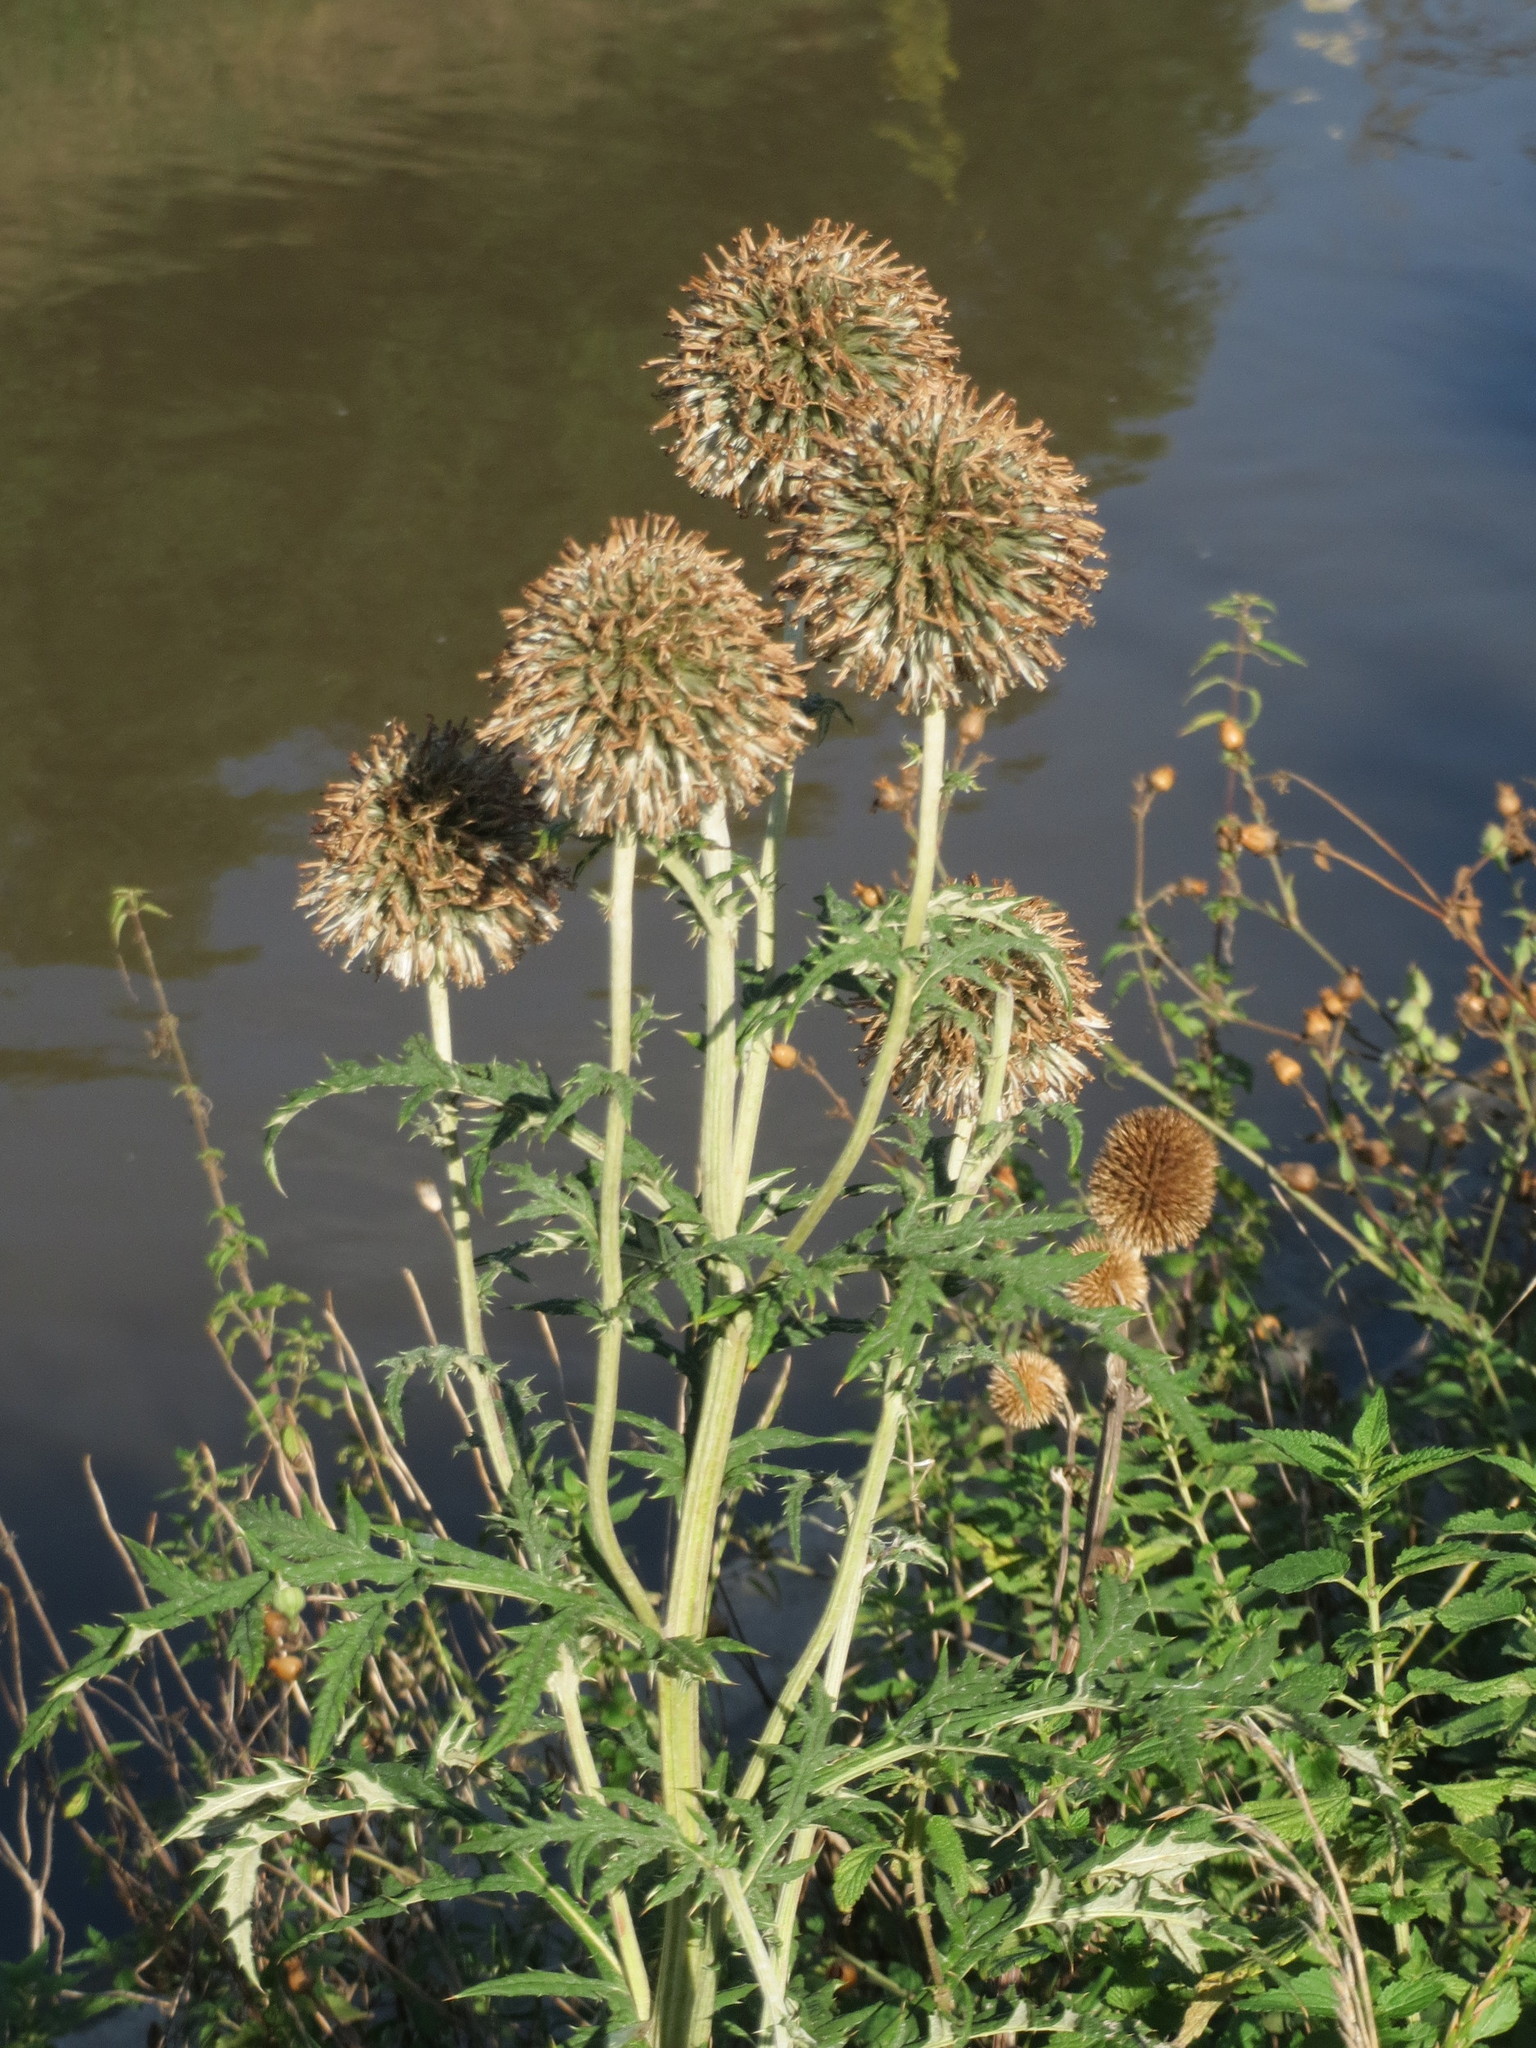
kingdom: Plantae
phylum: Tracheophyta
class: Magnoliopsida
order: Asterales
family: Asteraceae
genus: Echinops
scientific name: Echinops sphaerocephalus
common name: Glandular globe-thistle
